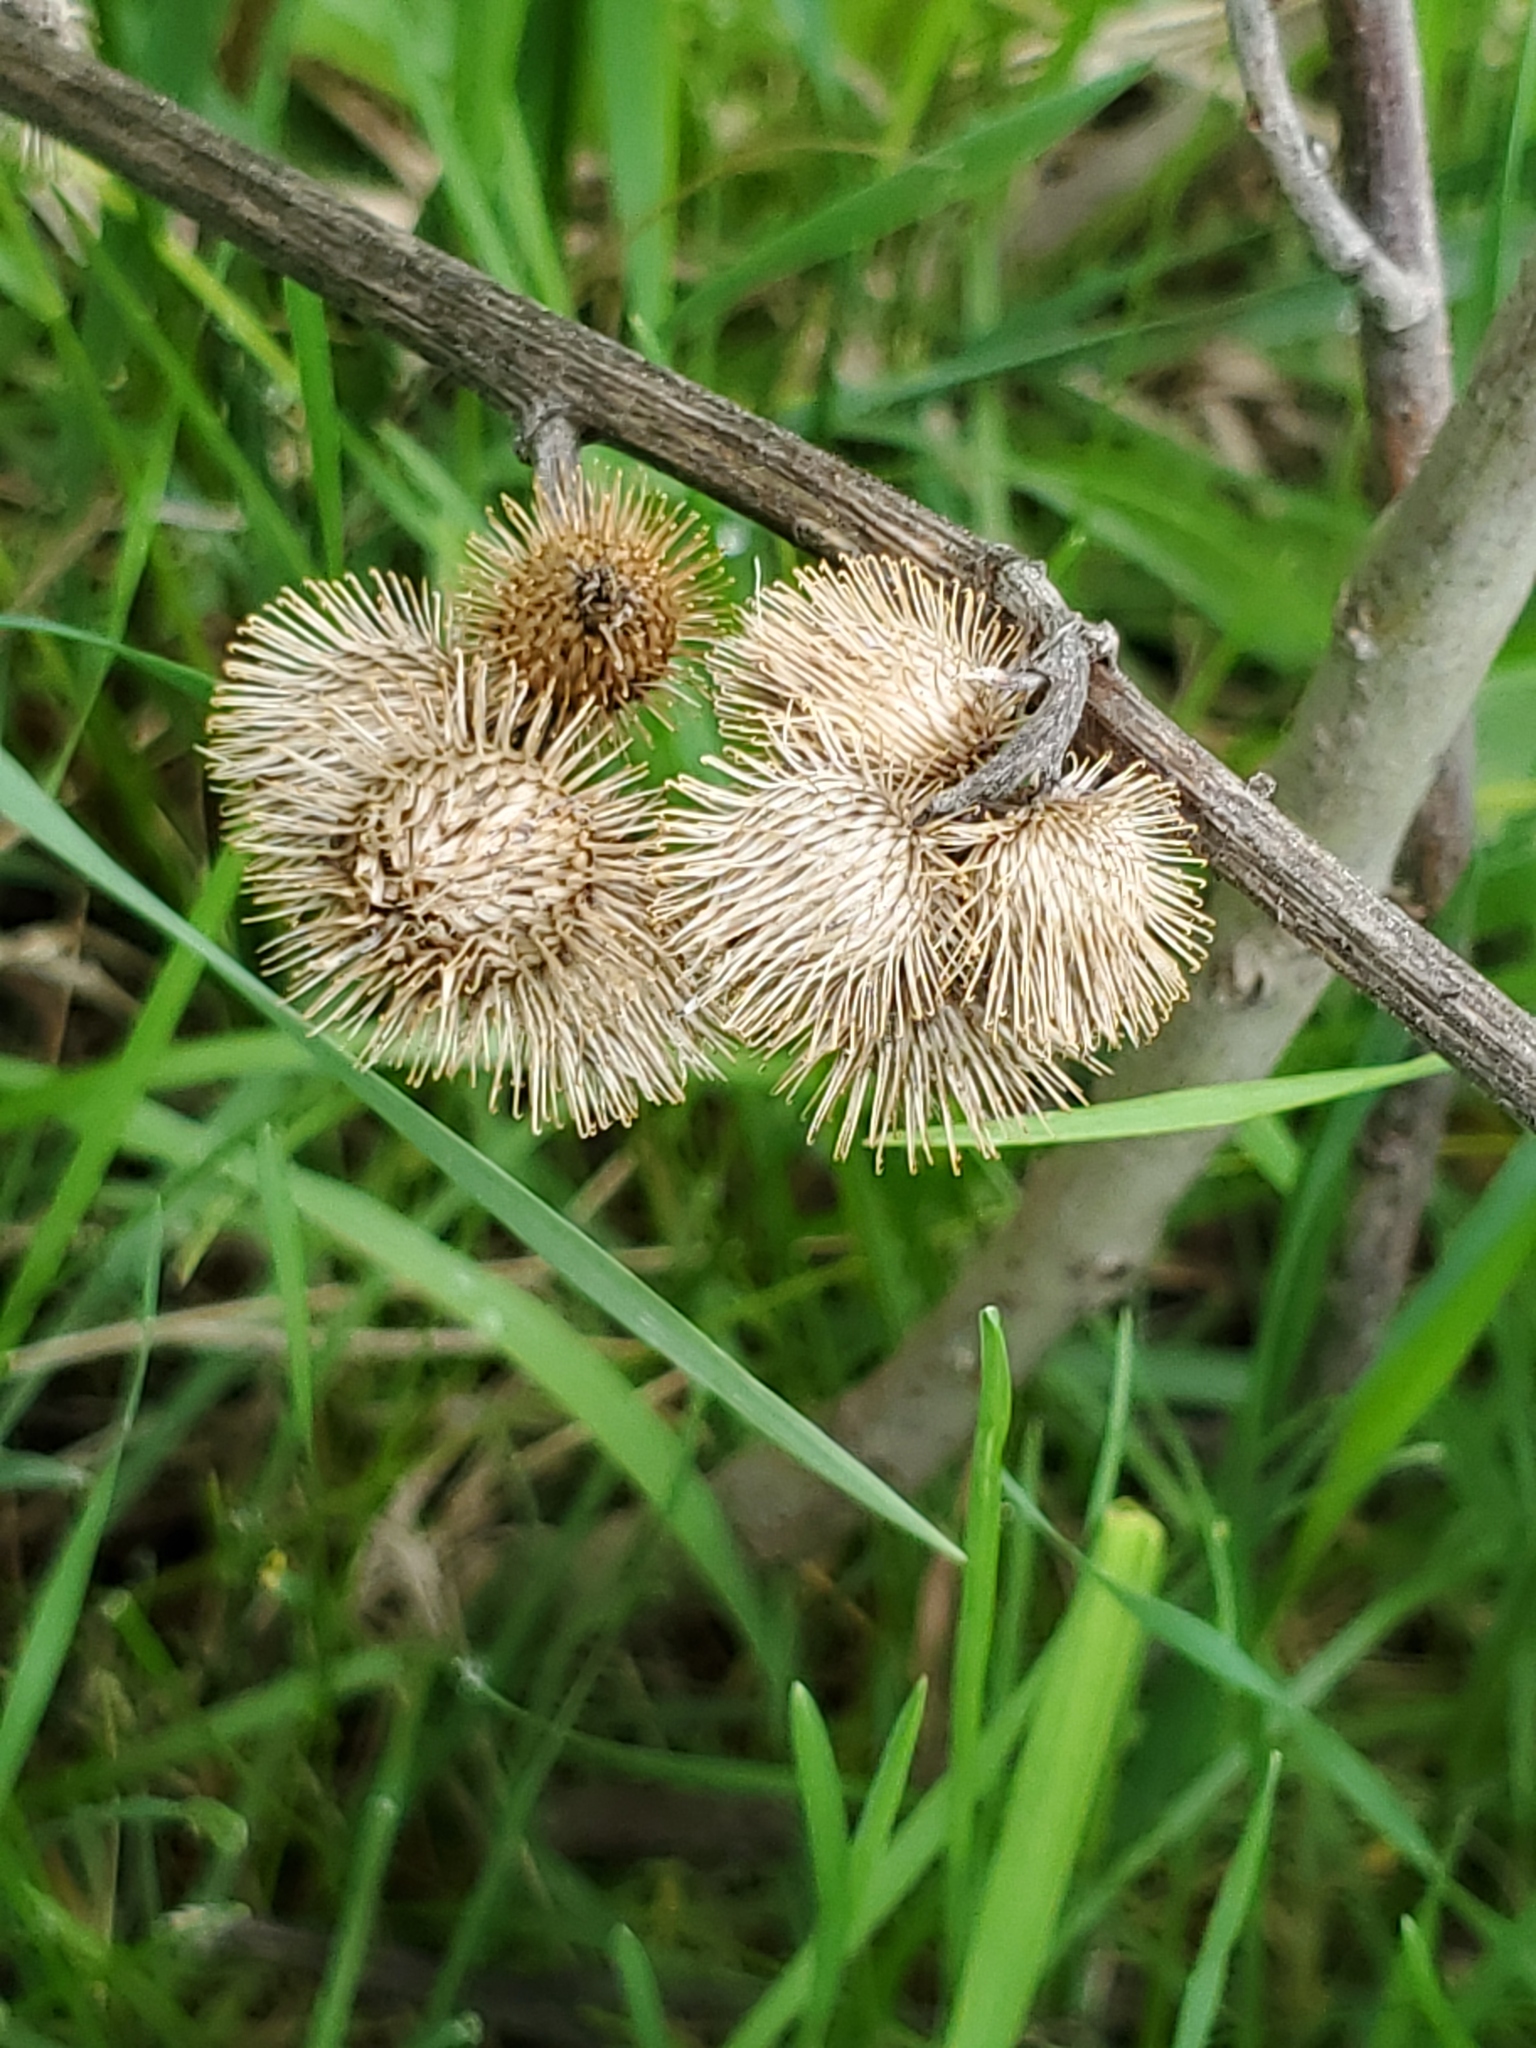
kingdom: Plantae
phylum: Tracheophyta
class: Magnoliopsida
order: Asterales
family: Asteraceae
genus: Arctium
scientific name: Arctium minus
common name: Lesser burdock
